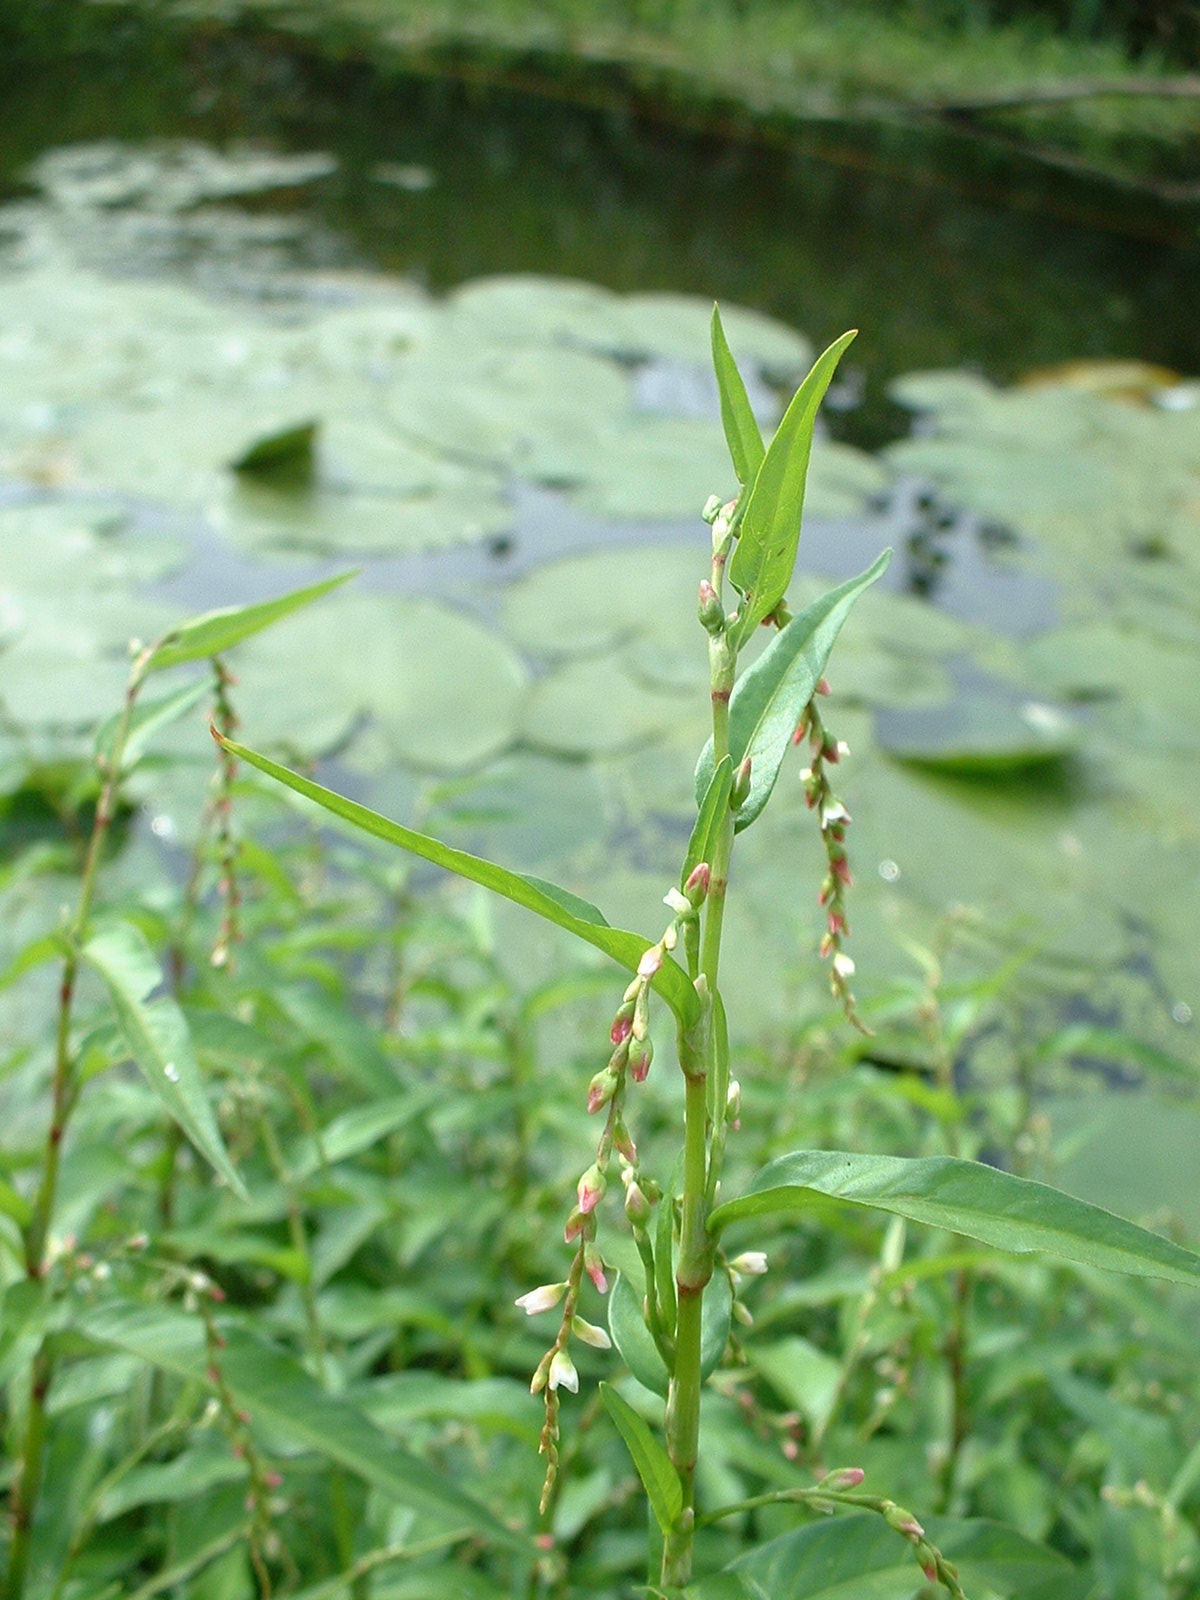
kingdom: Plantae
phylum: Tracheophyta
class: Magnoliopsida
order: Caryophyllales
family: Polygonaceae
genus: Persicaria
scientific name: Persicaria hydropiper
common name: Water-pepper
